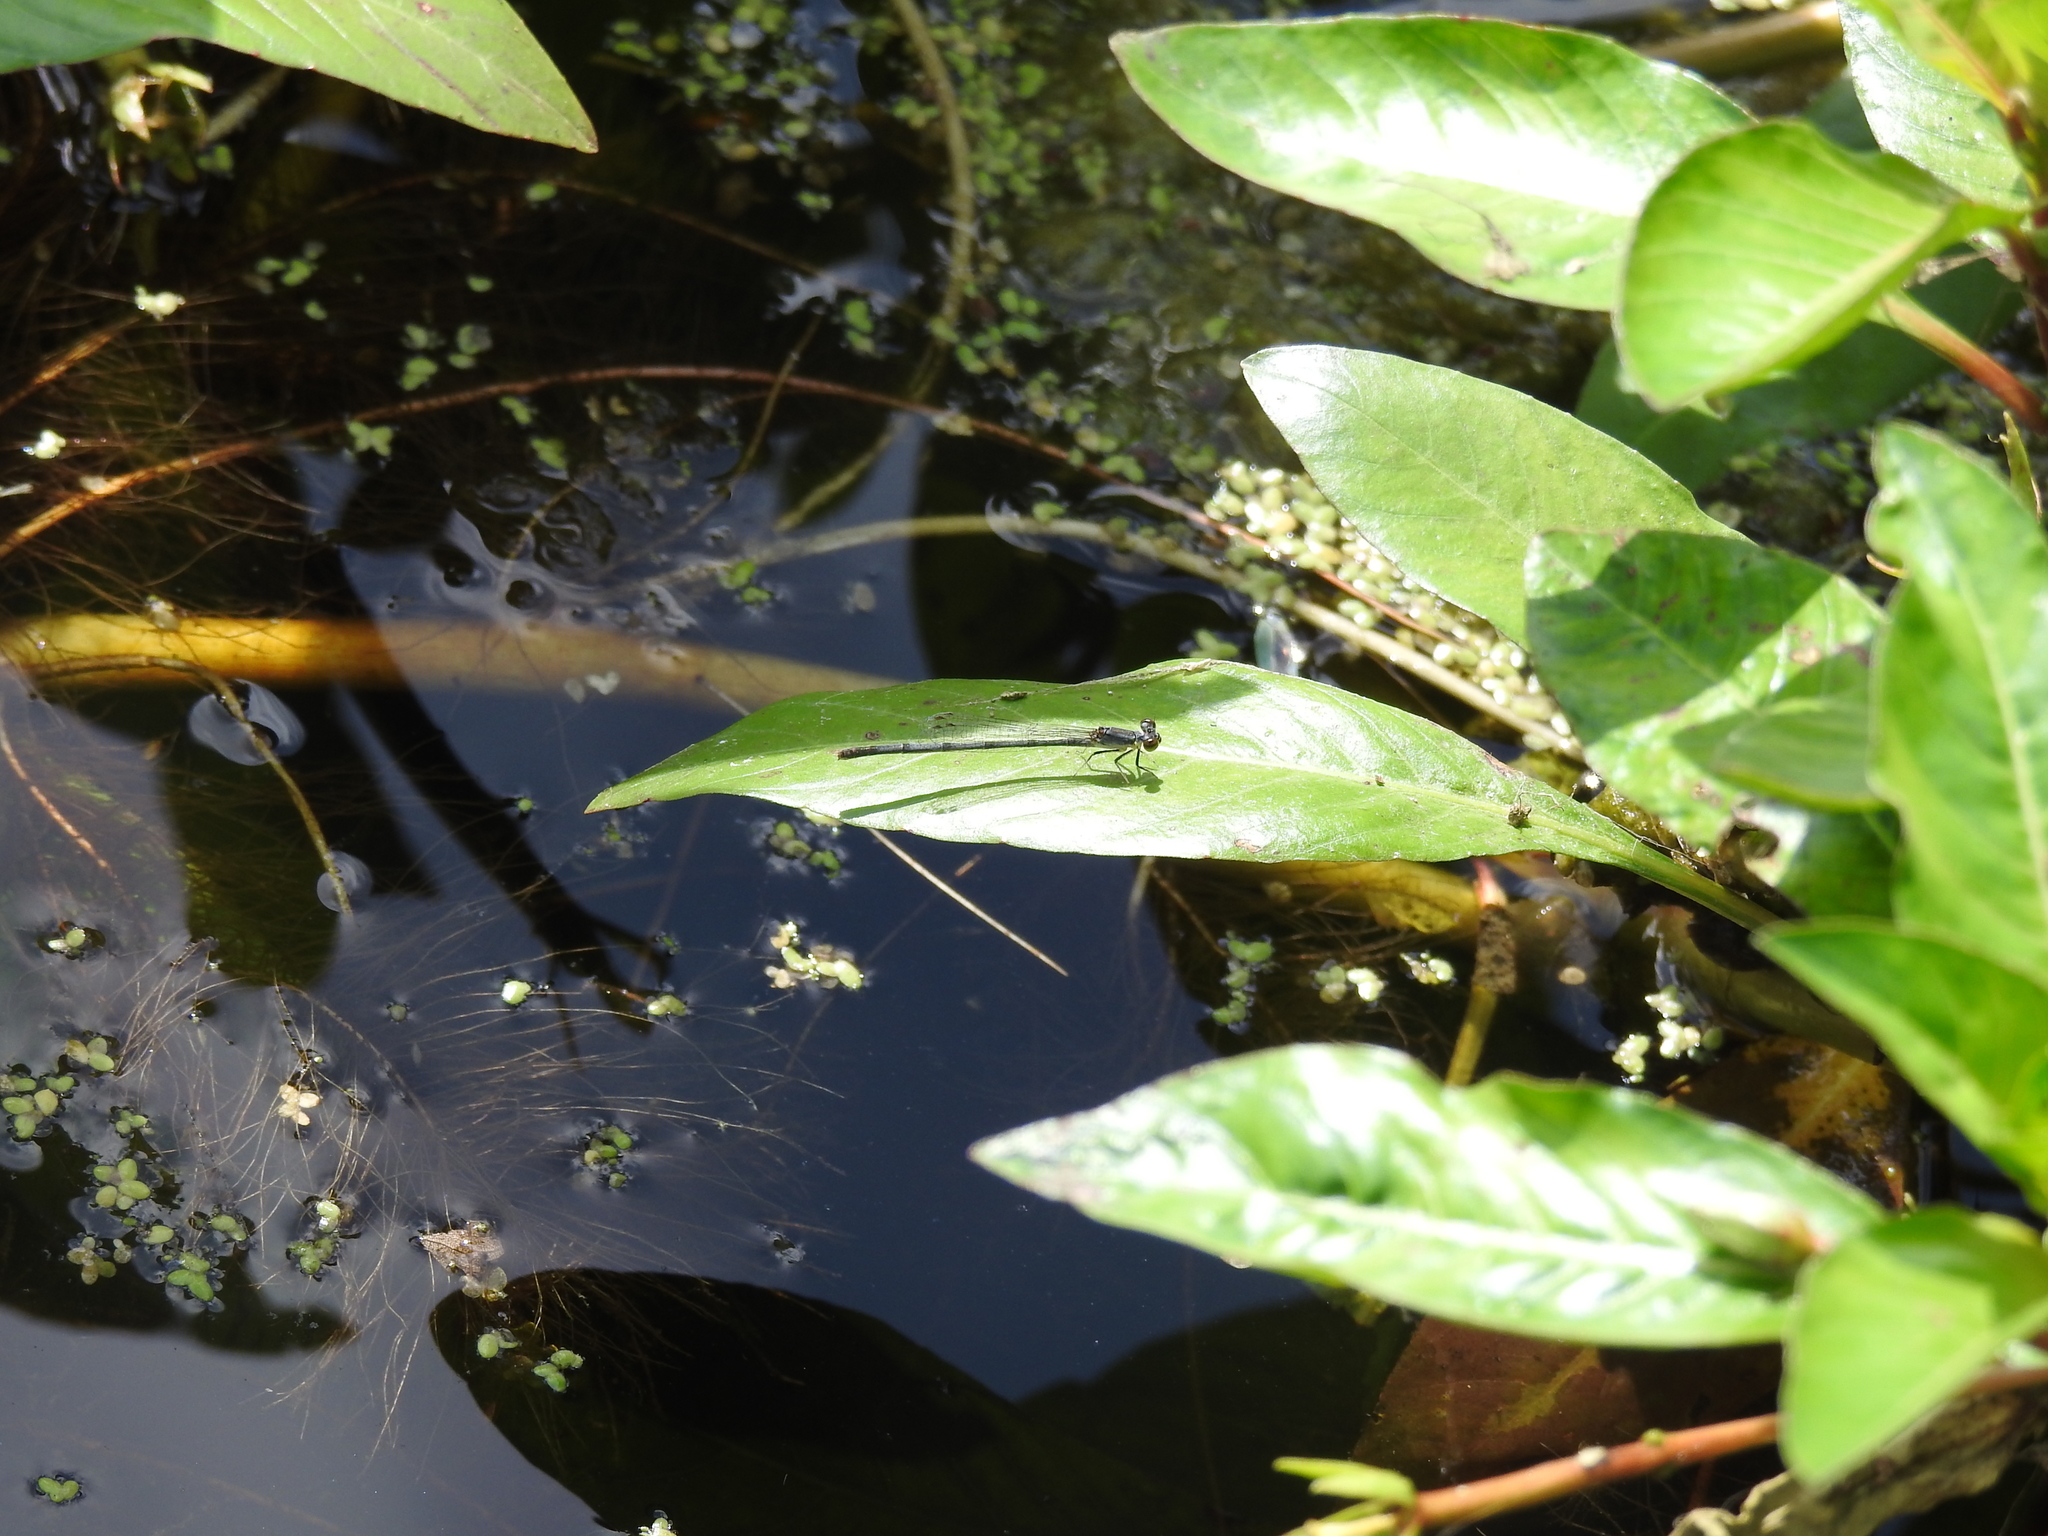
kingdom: Animalia
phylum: Arthropoda
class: Insecta
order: Odonata
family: Coenagrionidae
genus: Ischnura
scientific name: Ischnura posita
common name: Fragile forktail
